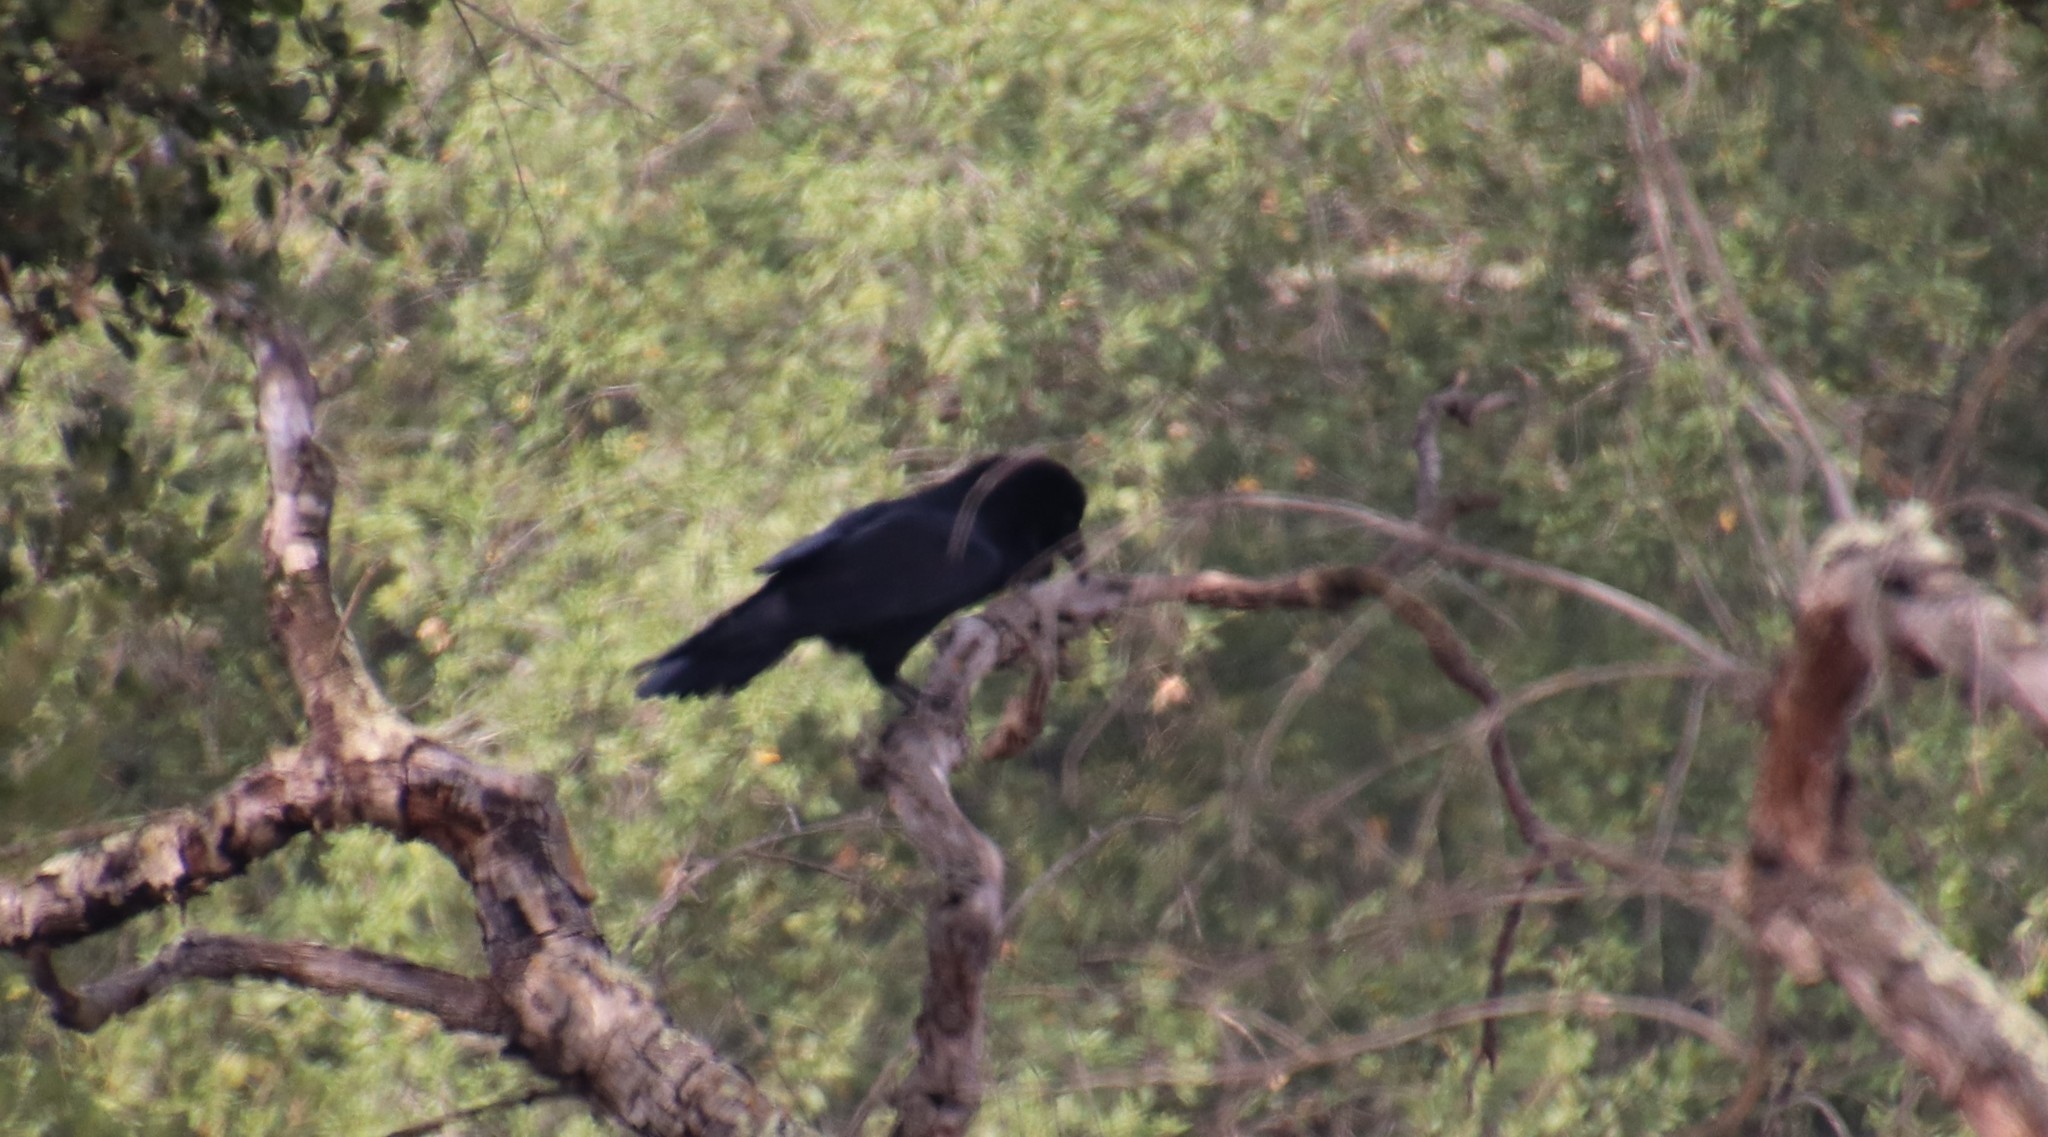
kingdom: Animalia
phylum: Chordata
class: Aves
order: Passeriformes
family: Corvidae
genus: Corvus
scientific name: Corvus corax
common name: Common raven
